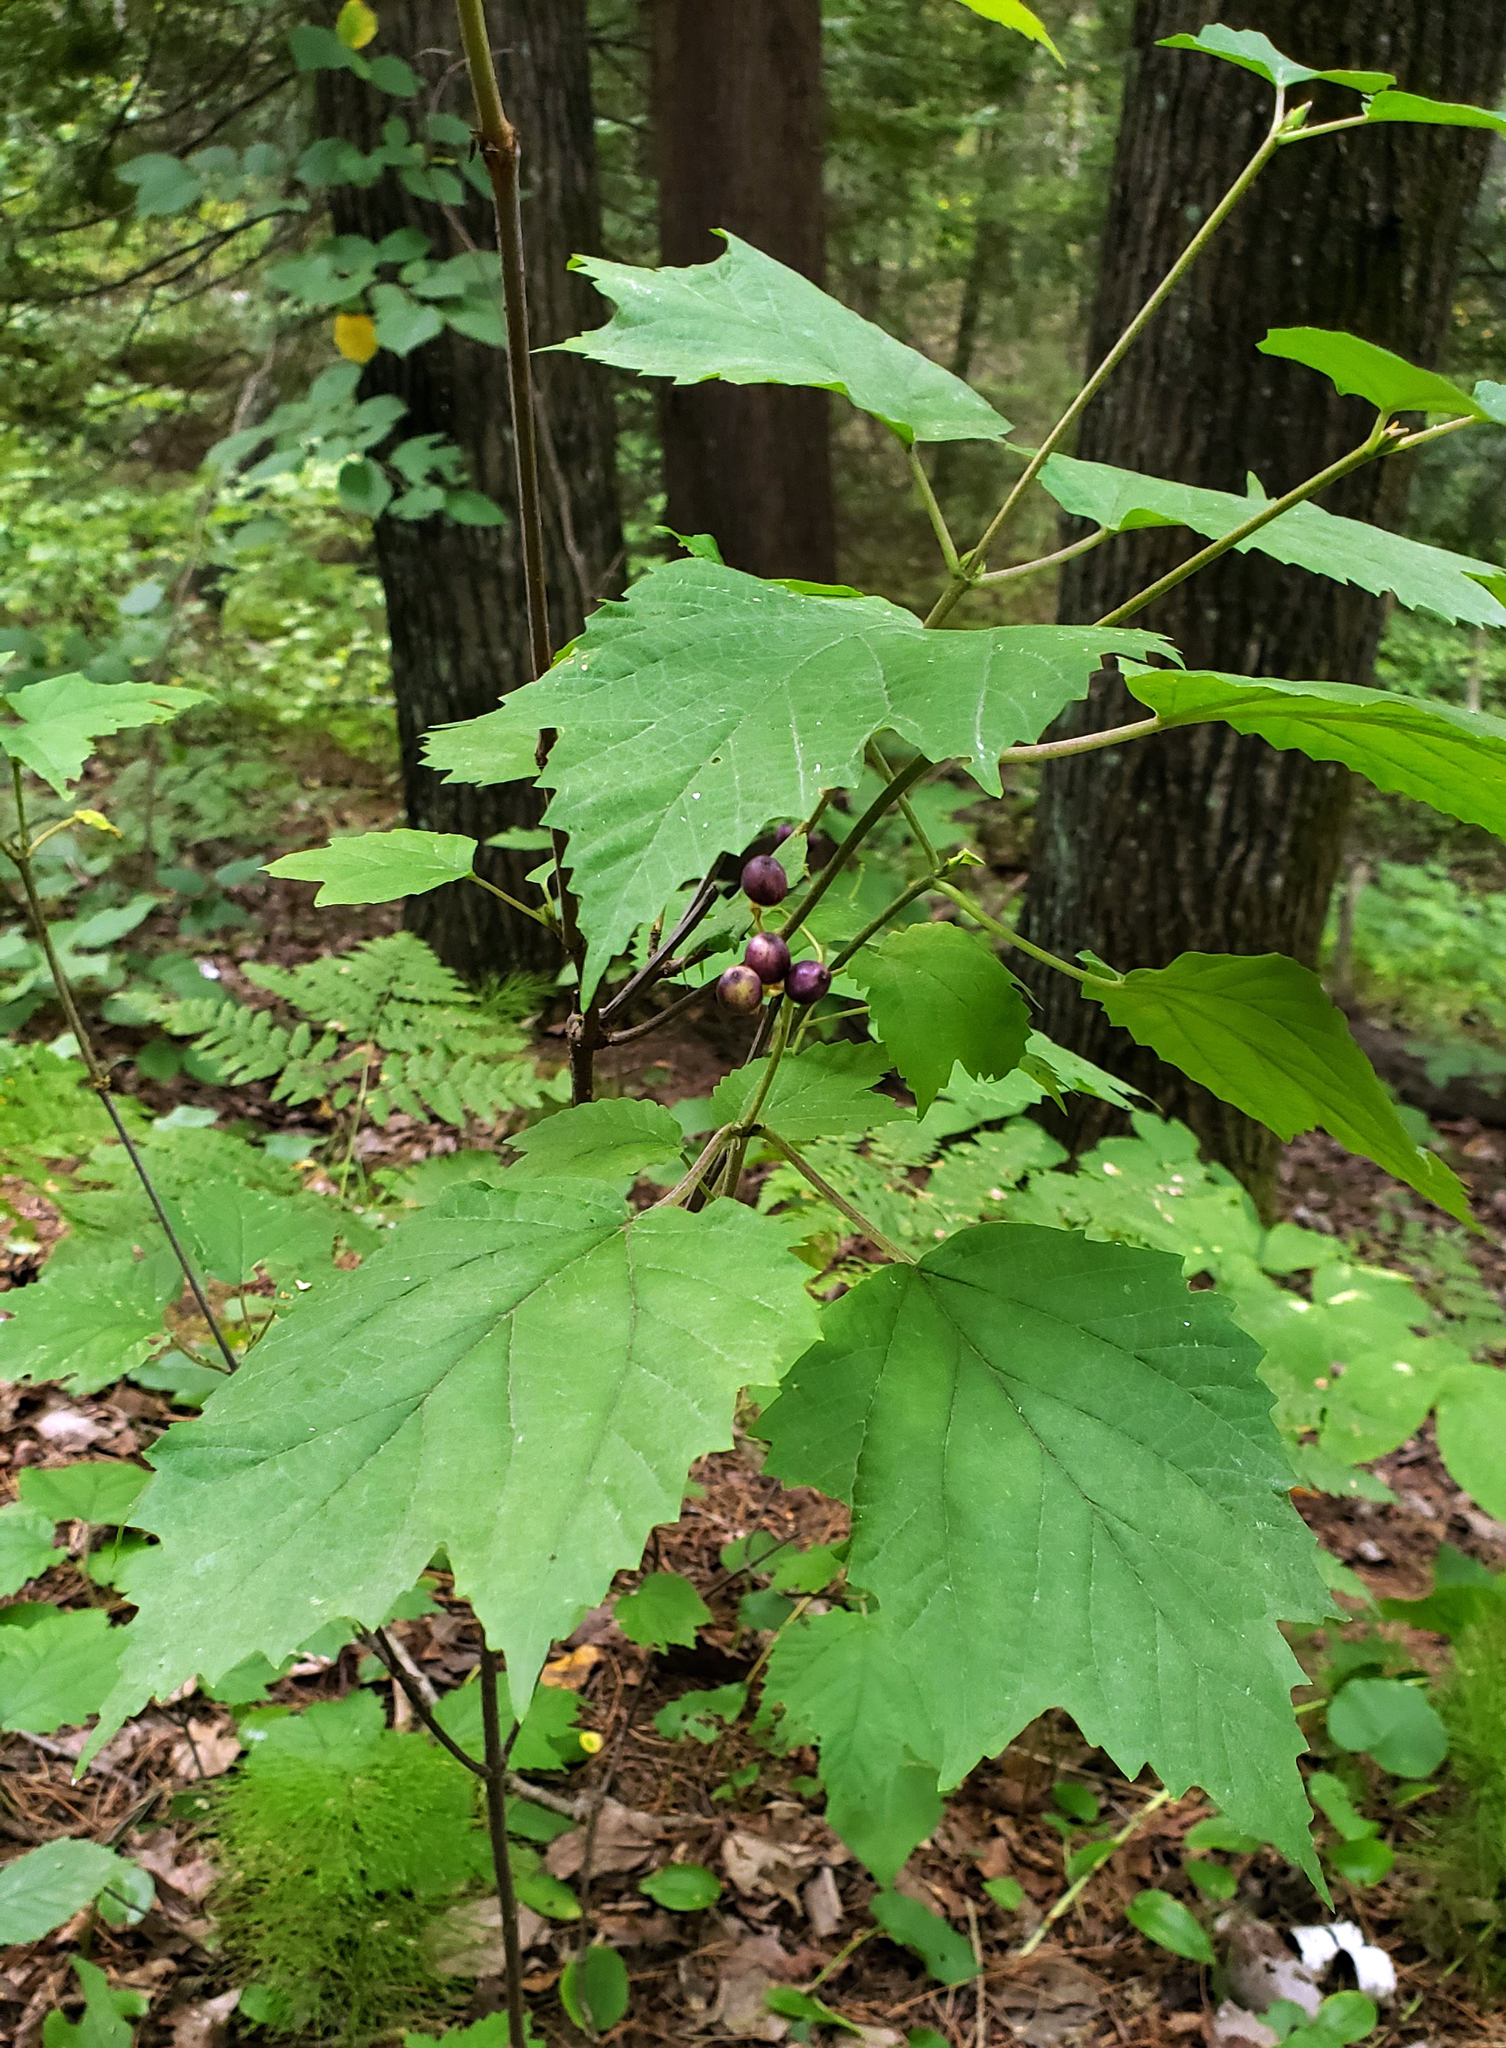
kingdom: Plantae
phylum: Tracheophyta
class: Magnoliopsida
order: Dipsacales
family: Viburnaceae
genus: Viburnum
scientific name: Viburnum acerifolium
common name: Dockmackie
